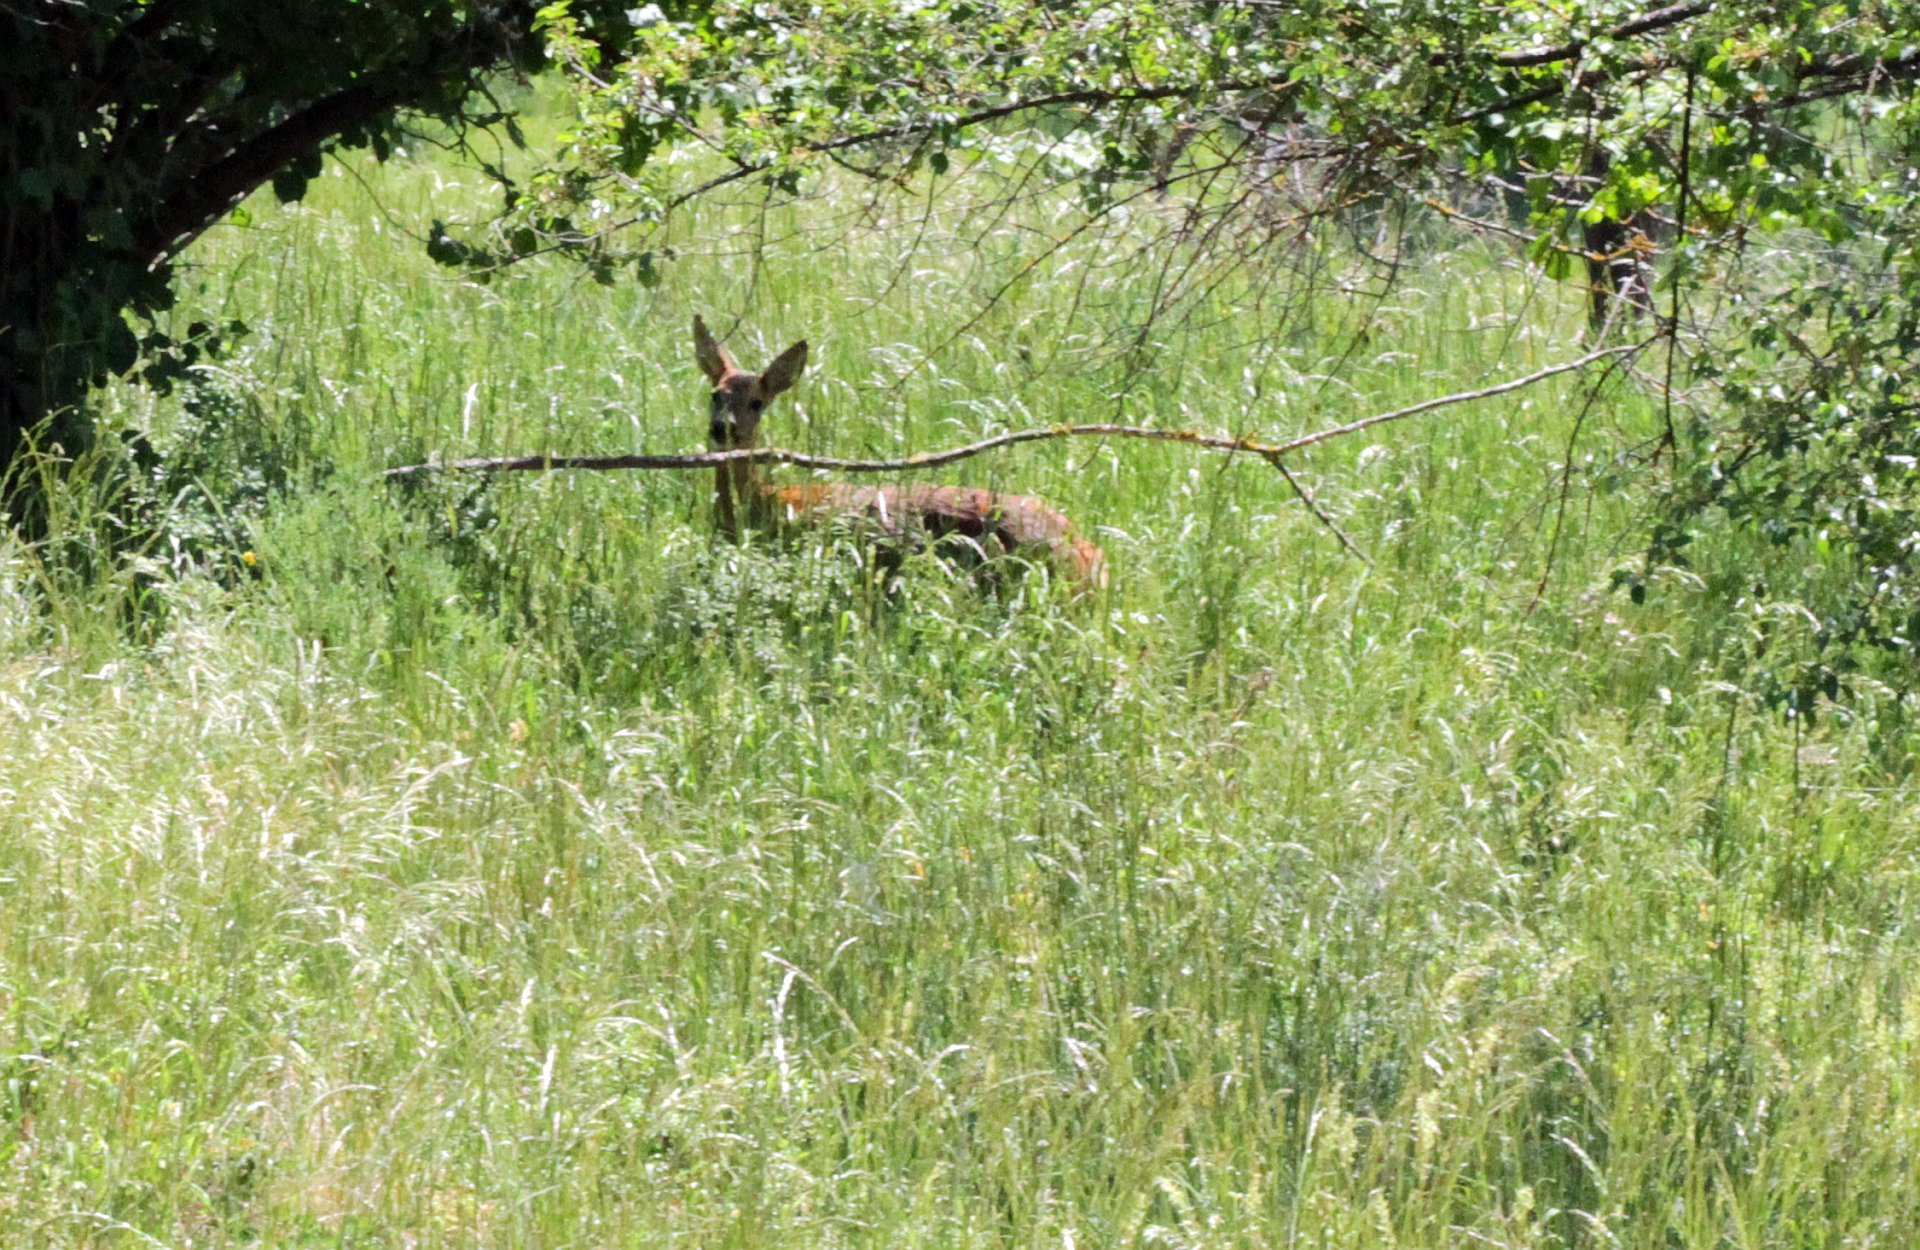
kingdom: Animalia
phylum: Chordata
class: Mammalia
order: Artiodactyla
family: Cervidae
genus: Capreolus
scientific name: Capreolus capreolus
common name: Western roe deer
